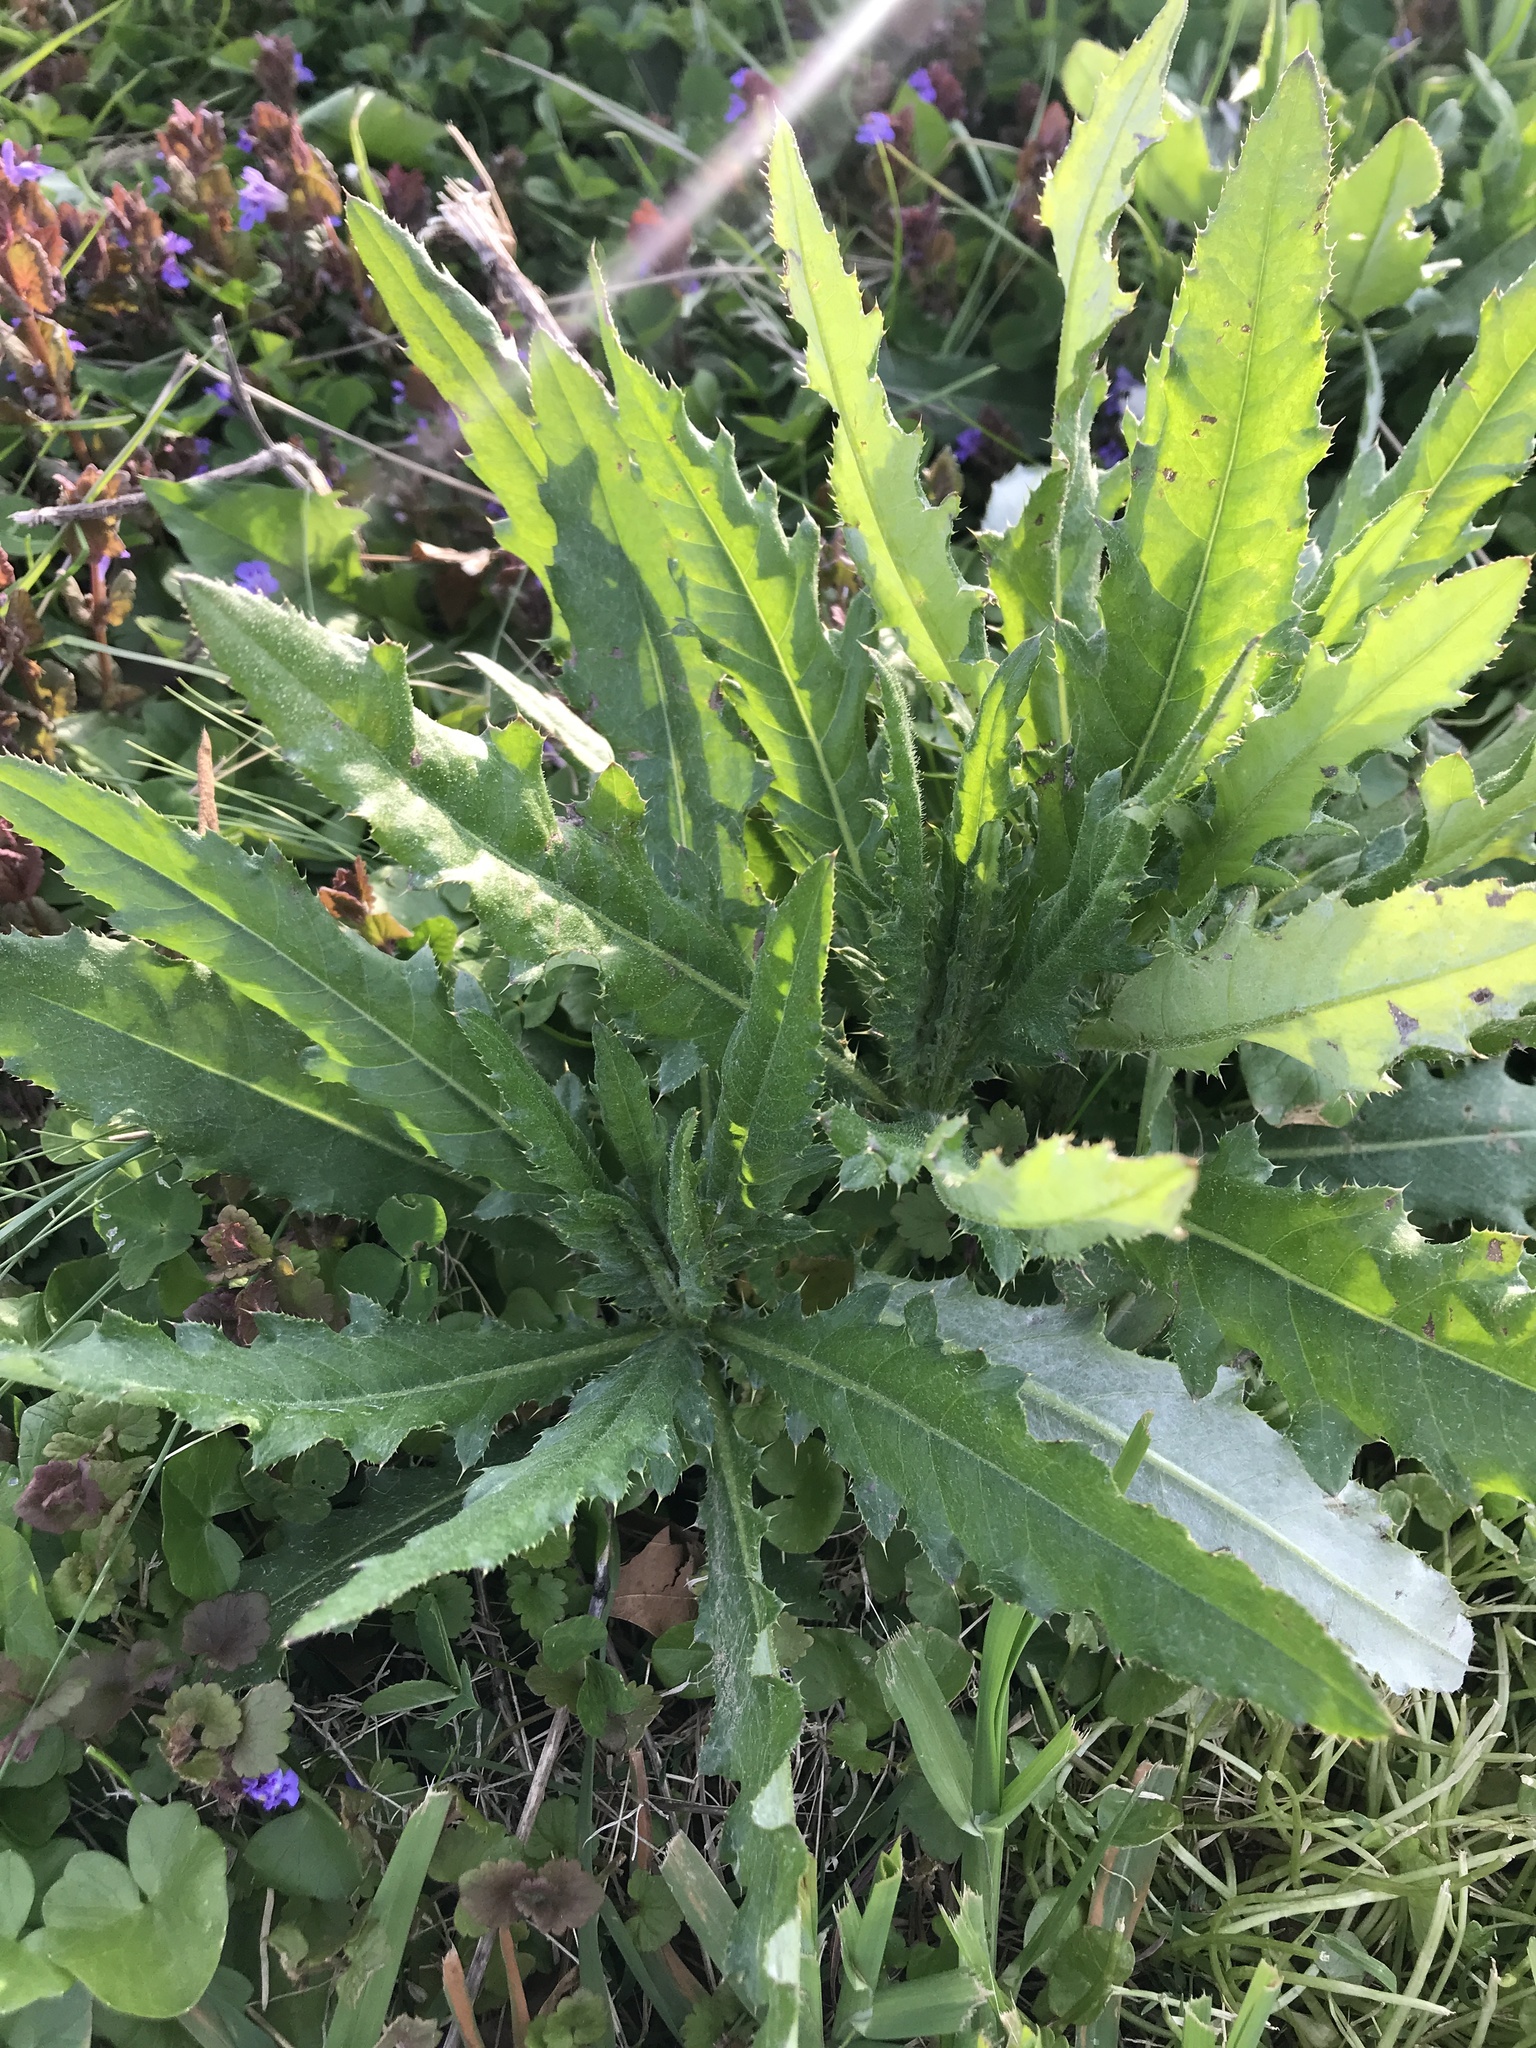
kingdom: Plantae
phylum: Tracheophyta
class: Magnoliopsida
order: Asterales
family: Asteraceae
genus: Cirsium
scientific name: Cirsium arvense
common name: Creeping thistle
